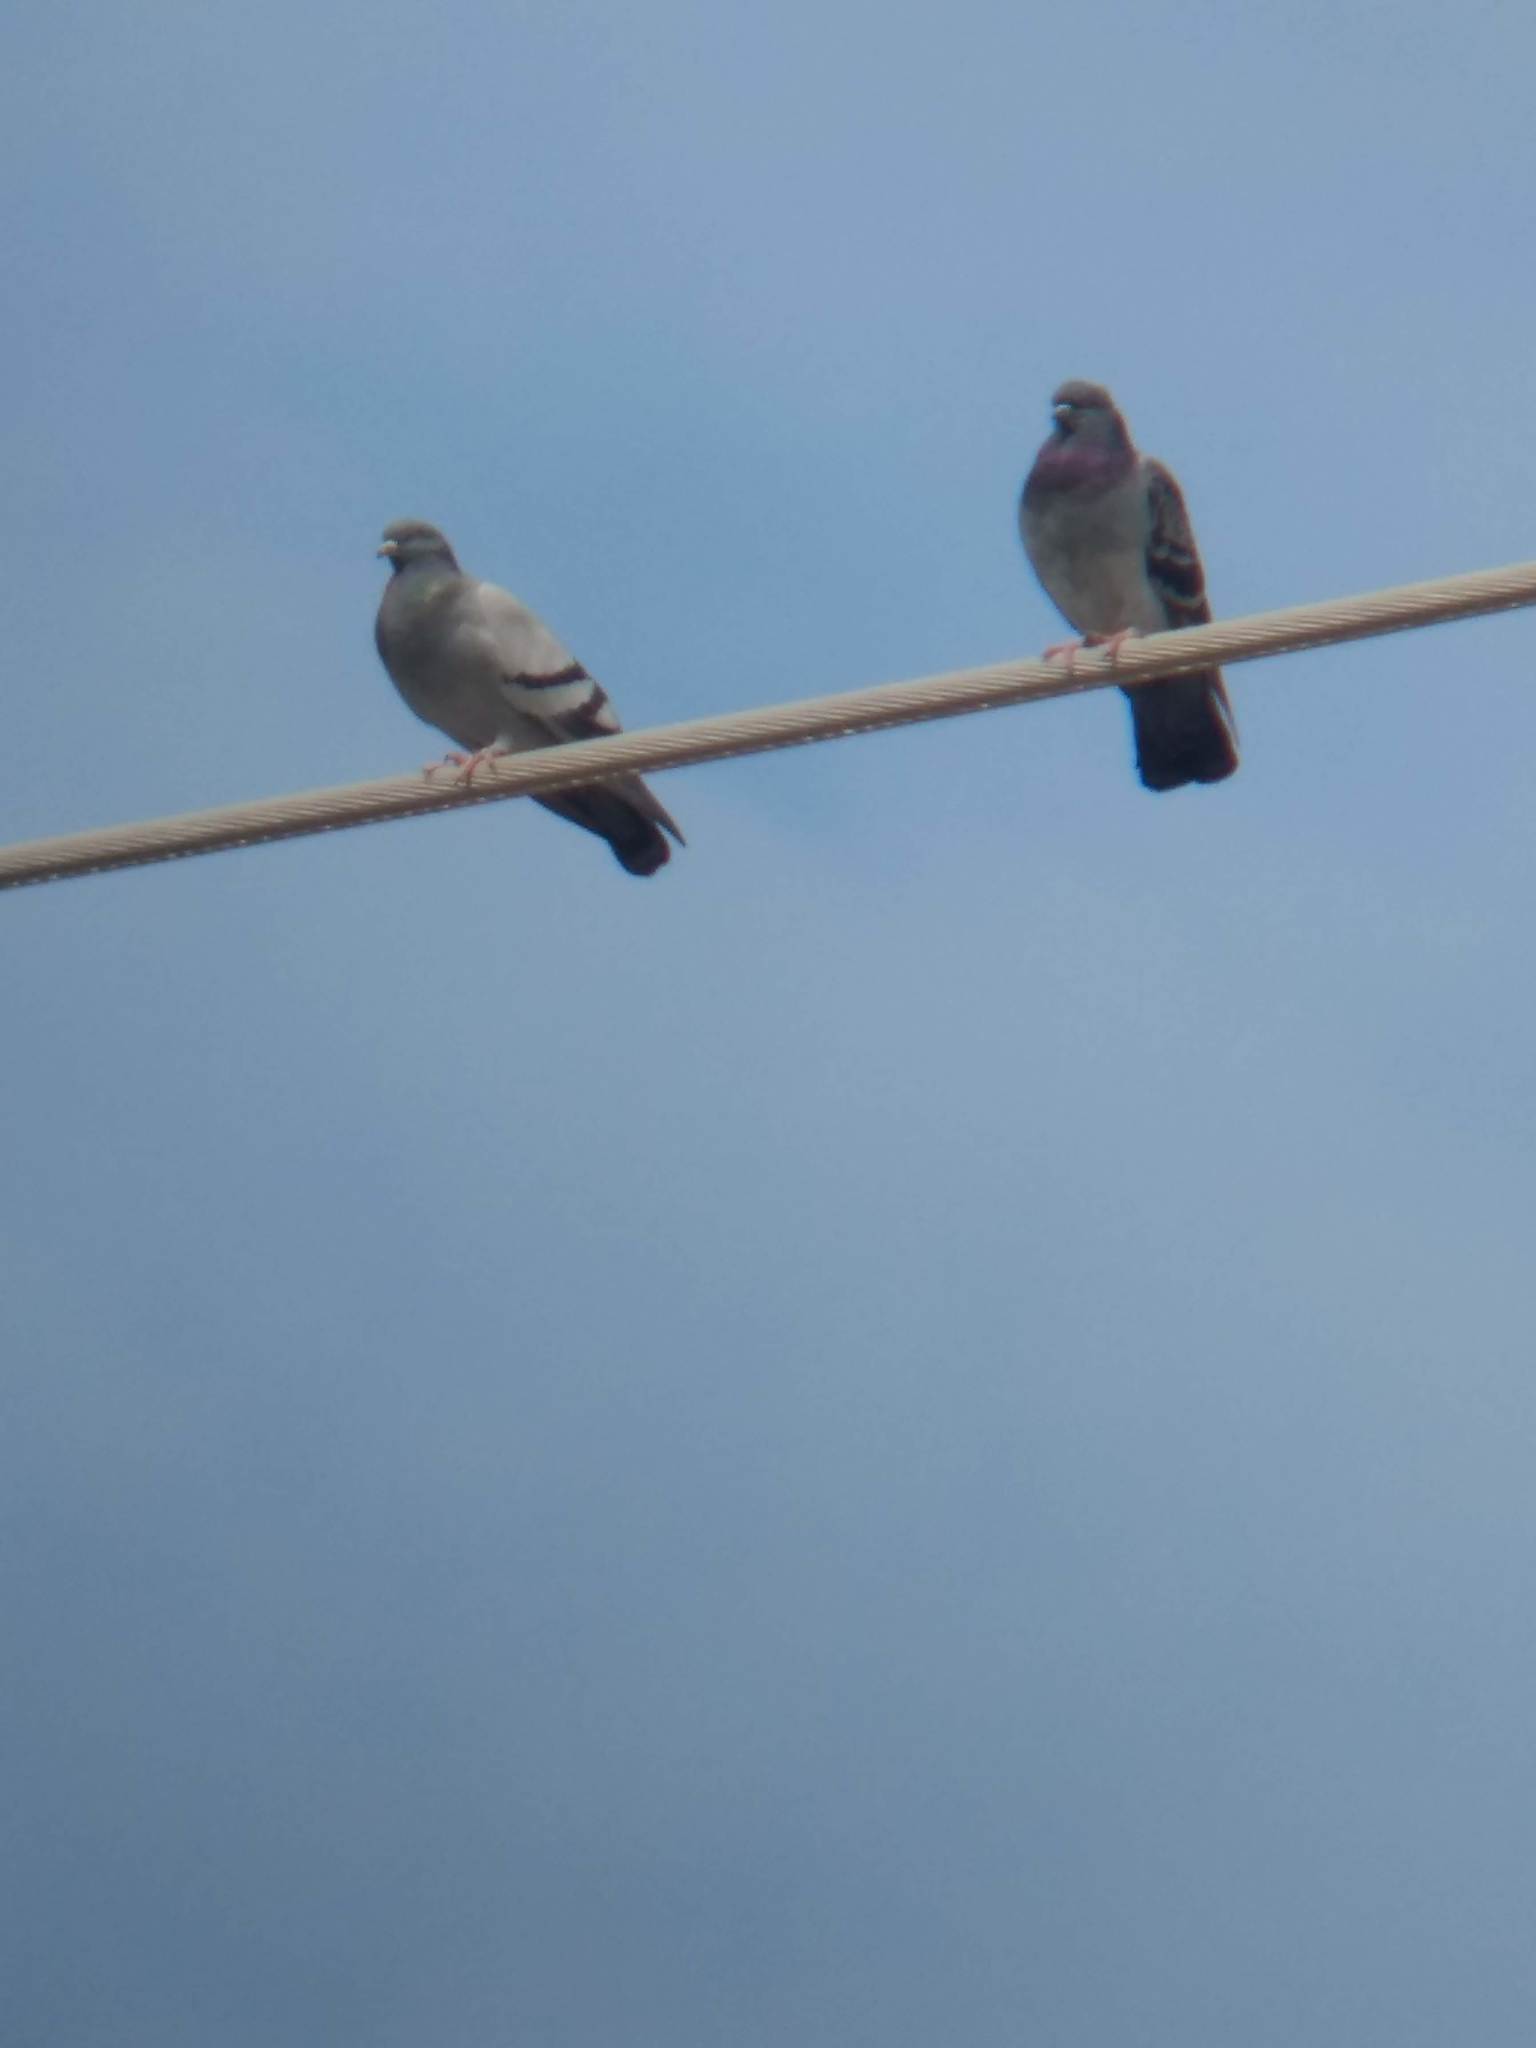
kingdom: Animalia
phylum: Chordata
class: Aves
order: Columbiformes
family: Columbidae
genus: Columba
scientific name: Columba livia
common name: Rock pigeon
